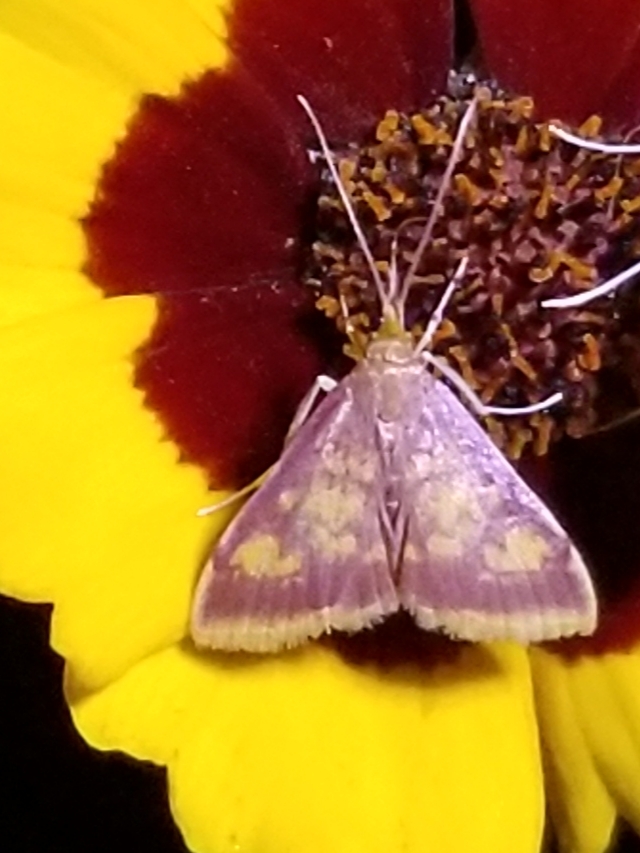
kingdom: Animalia
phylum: Arthropoda
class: Insecta
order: Lepidoptera
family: Crambidae
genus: Pyrausta
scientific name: Pyrausta acrionalis
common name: Mint-loving pyrausta moth
